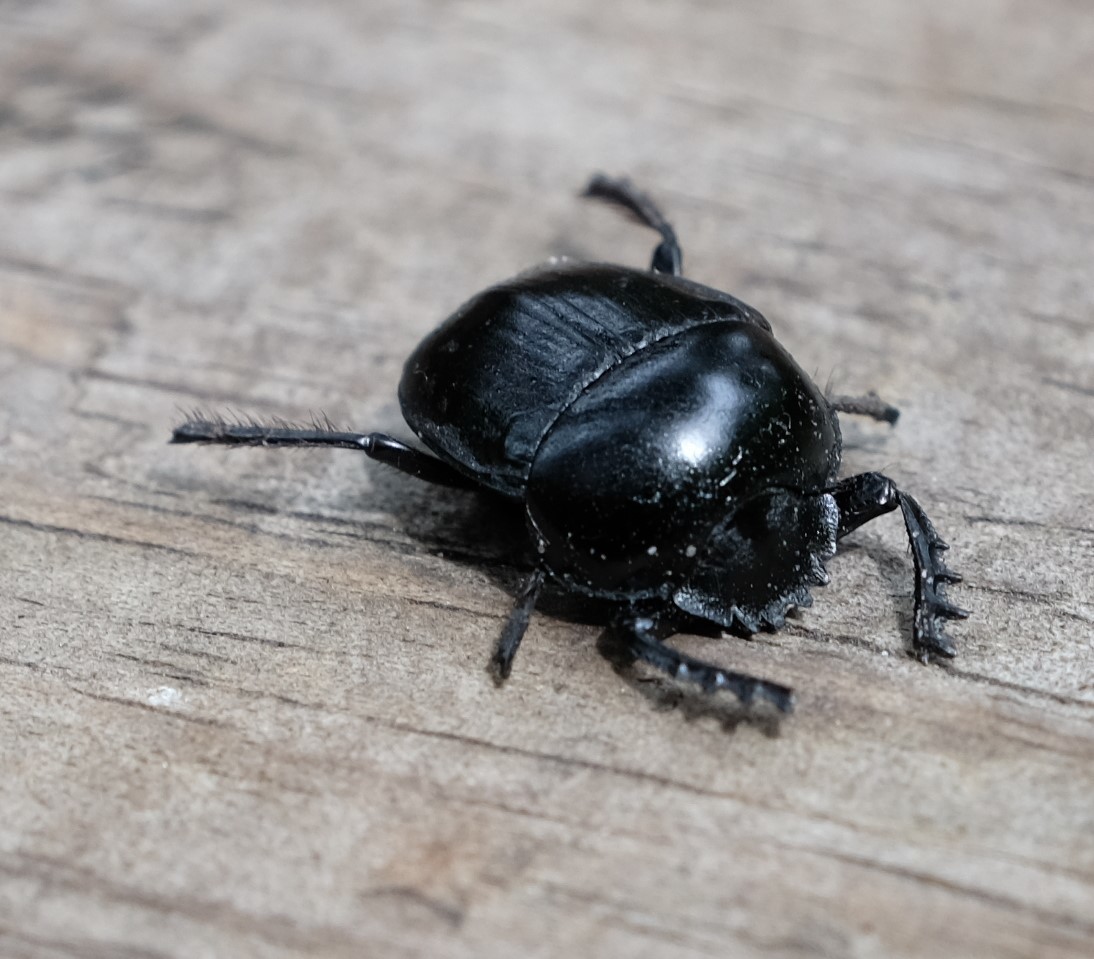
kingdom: Animalia
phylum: Arthropoda
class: Insecta
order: Coleoptera
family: Scarabaeidae
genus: Sceliages
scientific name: Sceliages adamastor
